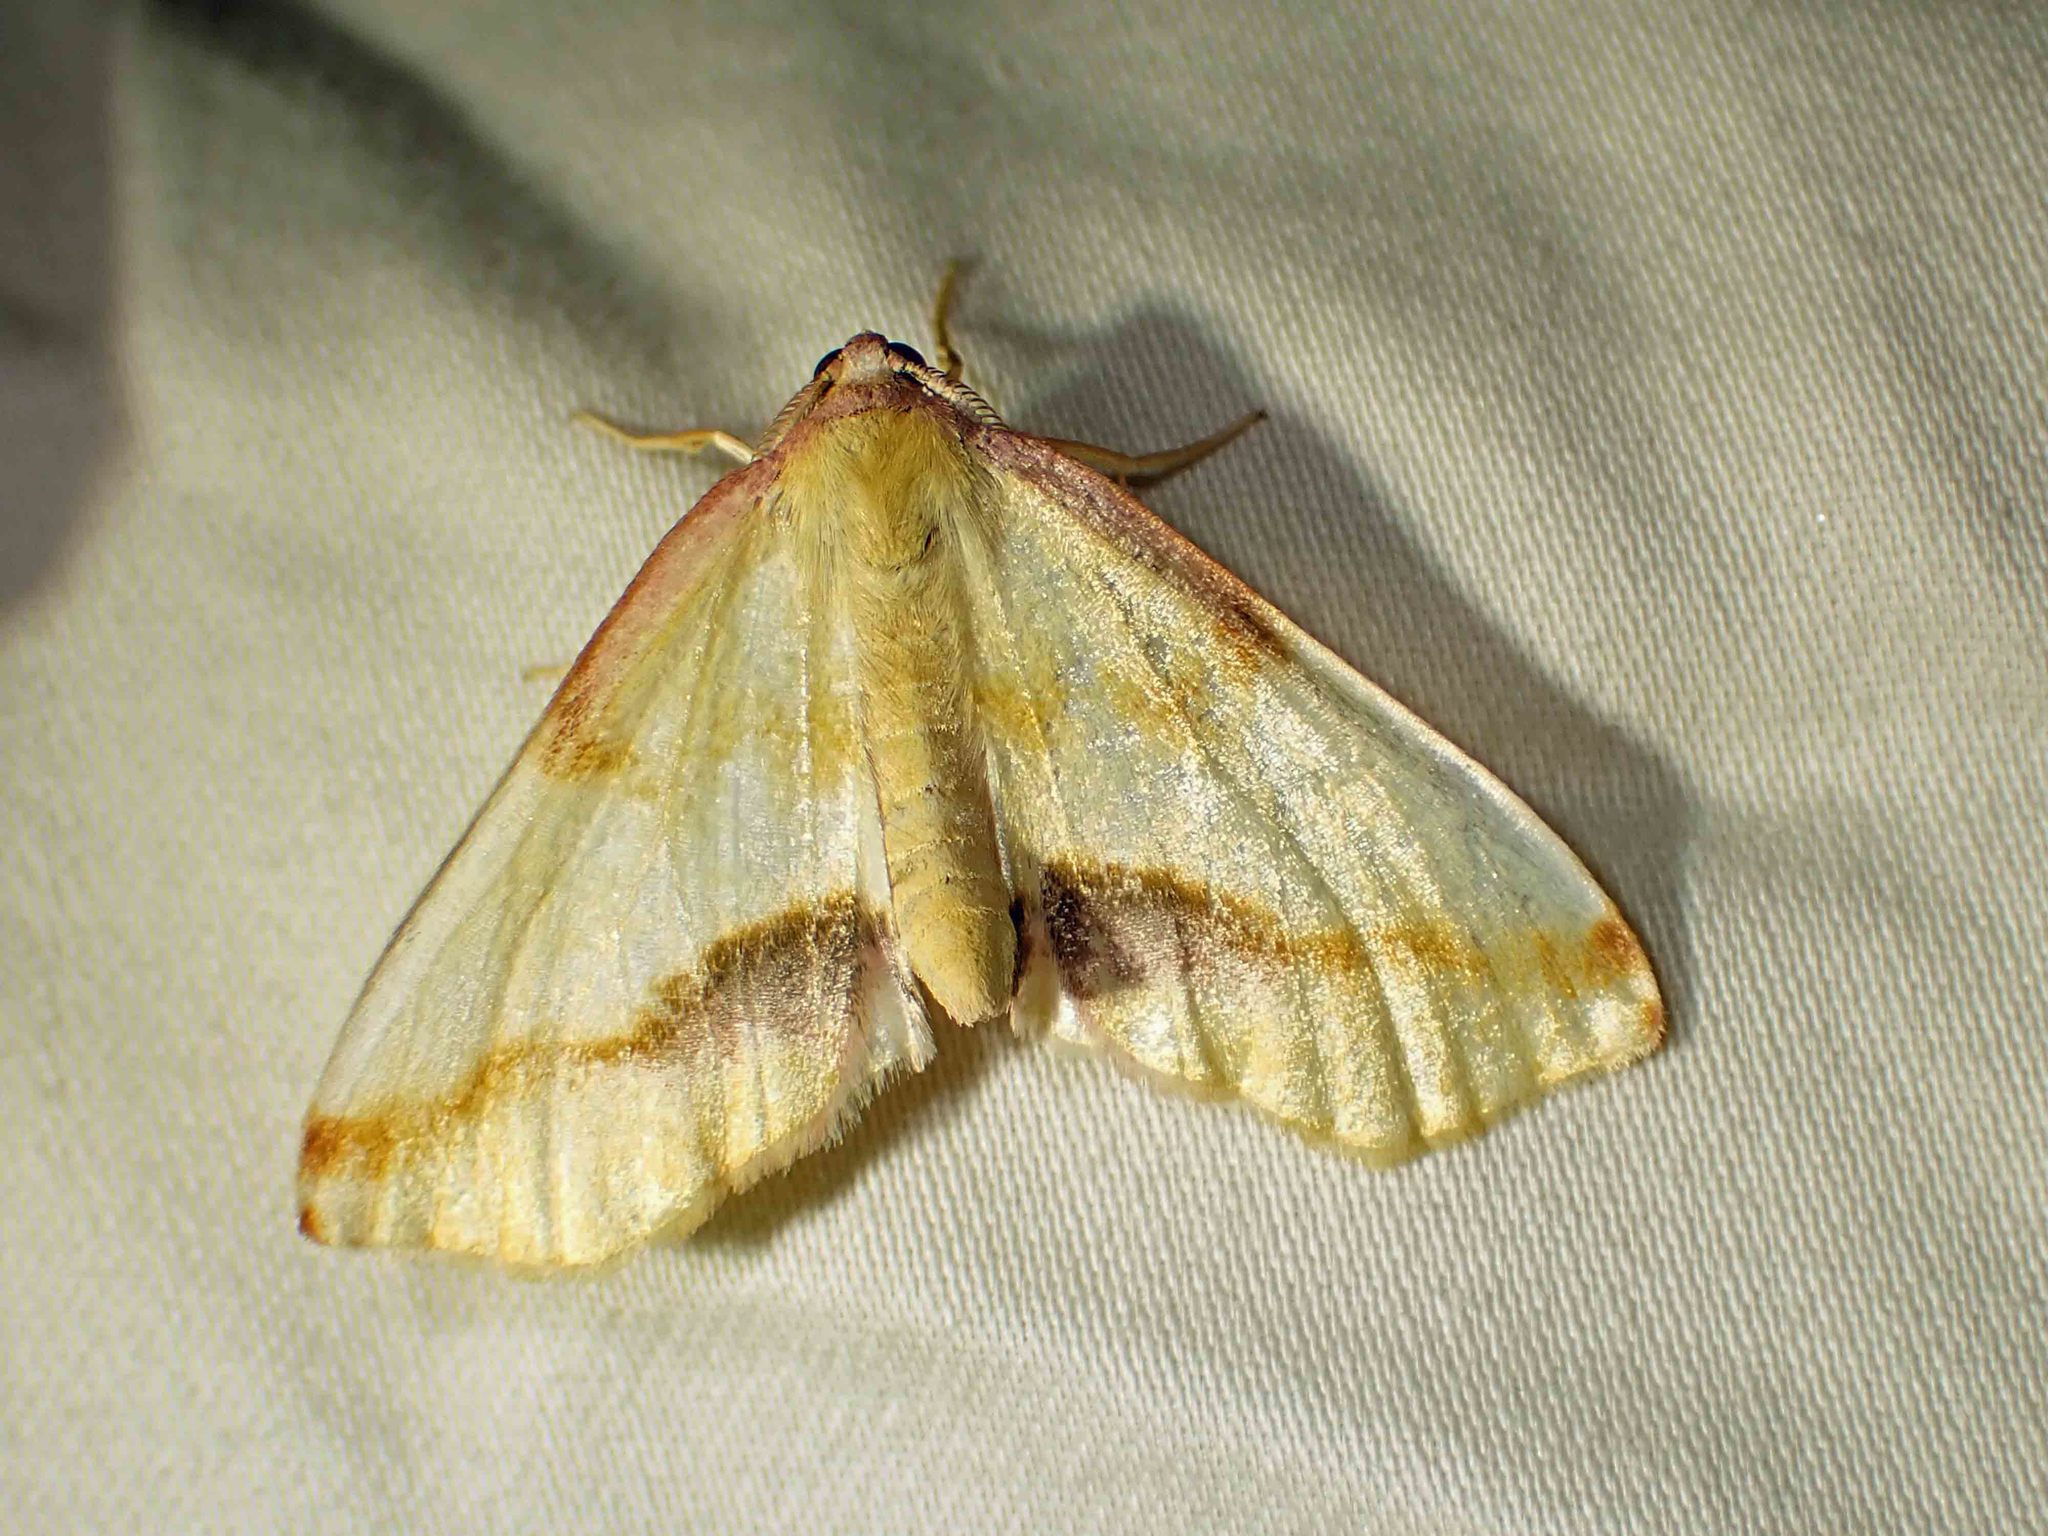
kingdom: Animalia
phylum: Arthropoda
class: Insecta
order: Lepidoptera
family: Geometridae
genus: Plagodis
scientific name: Plagodis serinaria
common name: Lemon plagodis
